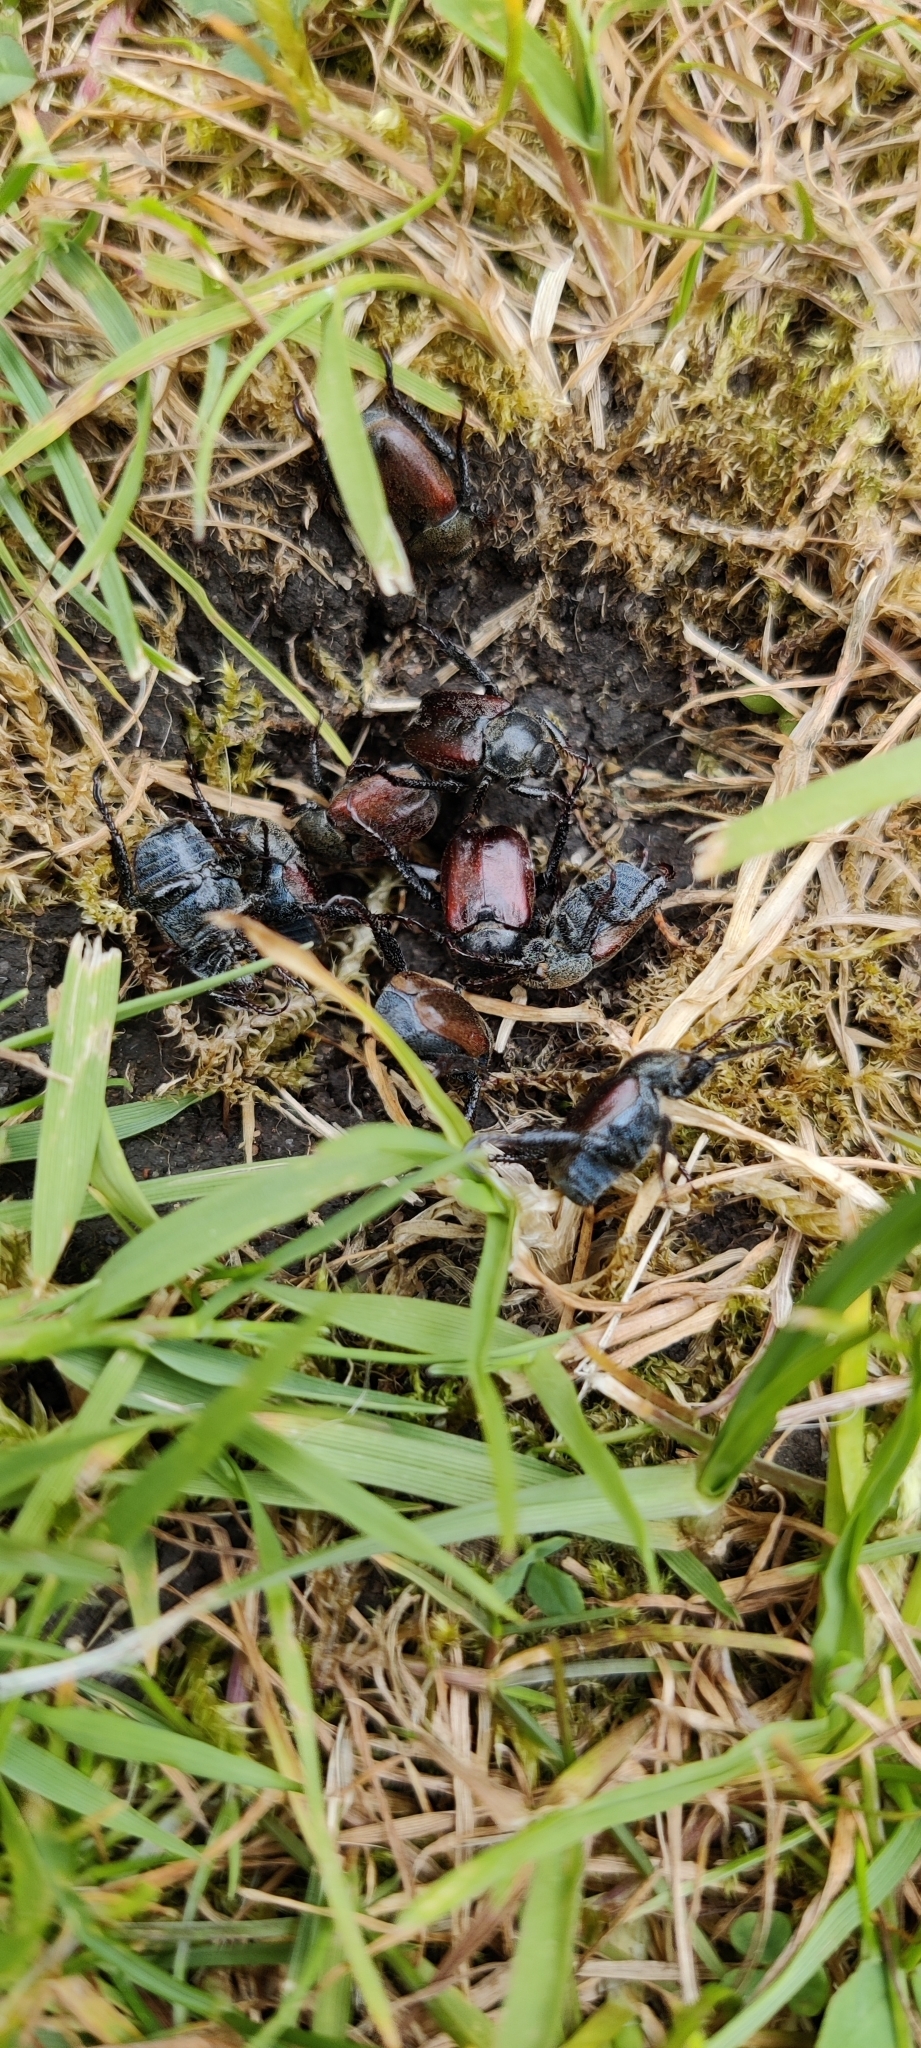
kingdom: Animalia
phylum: Arthropoda
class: Insecta
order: Coleoptera
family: Scarabaeidae
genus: Hoplia
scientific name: Hoplia philanthus
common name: Welsh chafer
